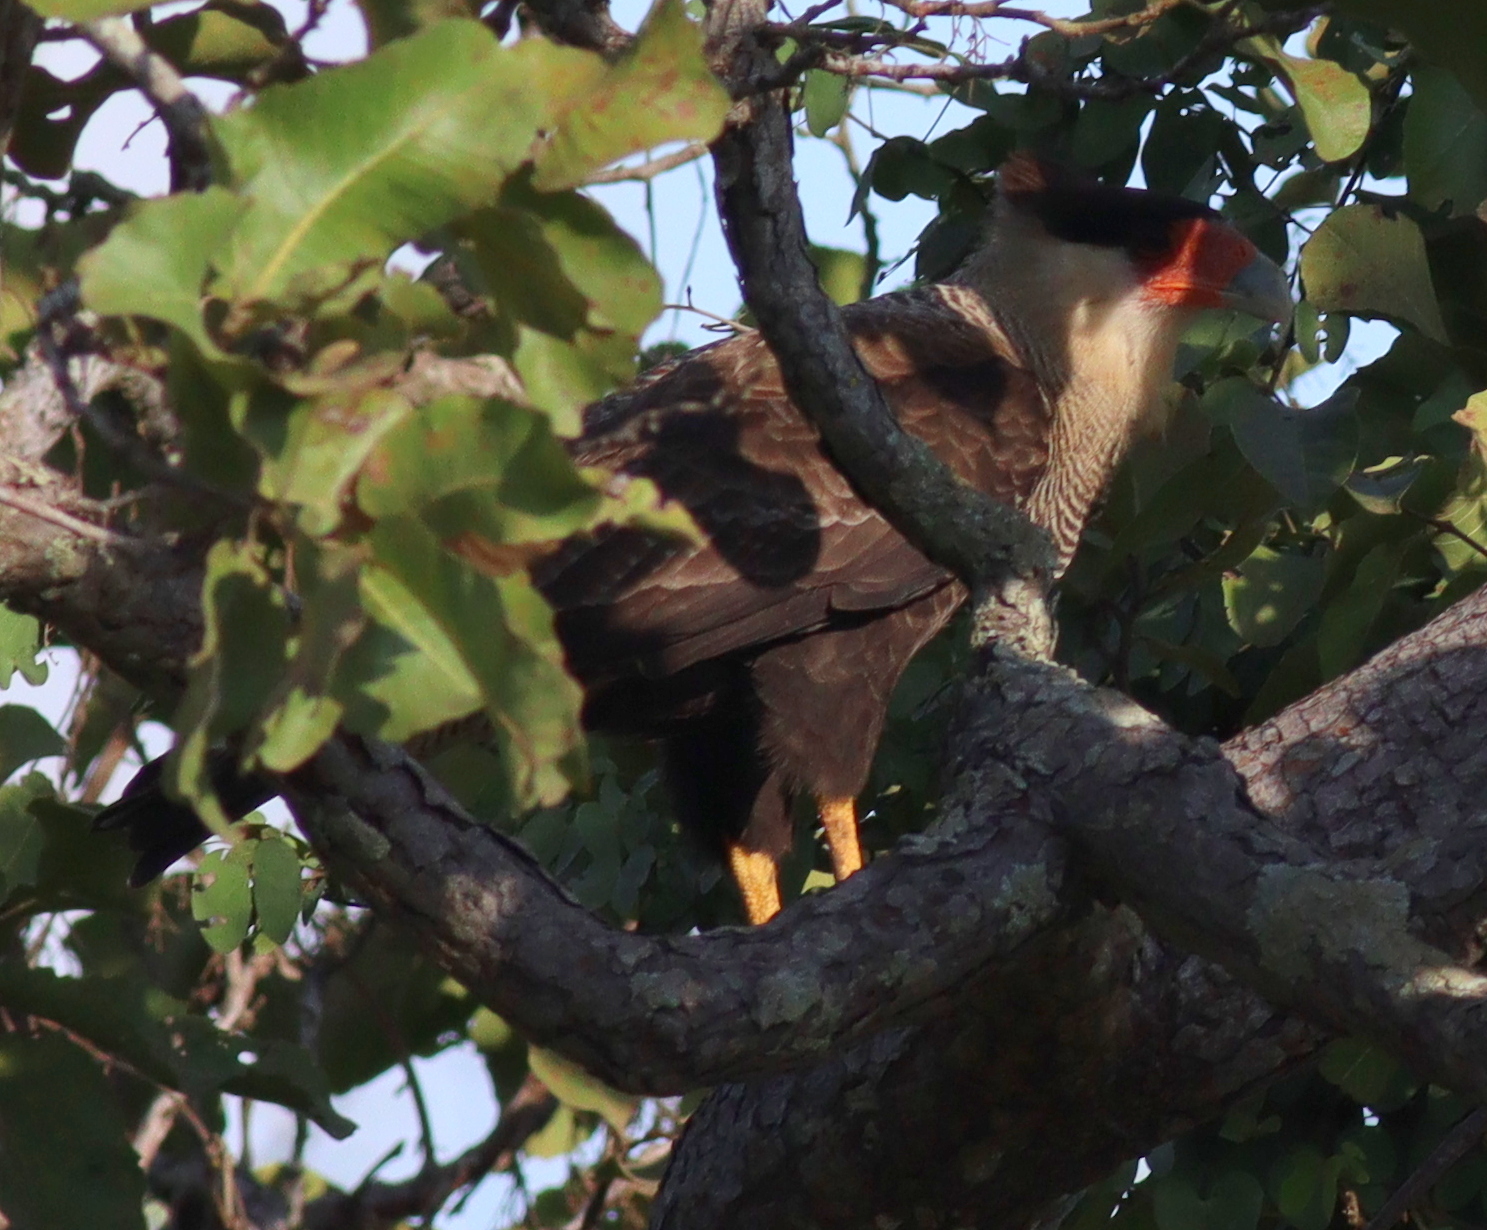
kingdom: Animalia
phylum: Chordata
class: Aves
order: Falconiformes
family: Falconidae
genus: Caracara
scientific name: Caracara plancus
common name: Southern caracara
